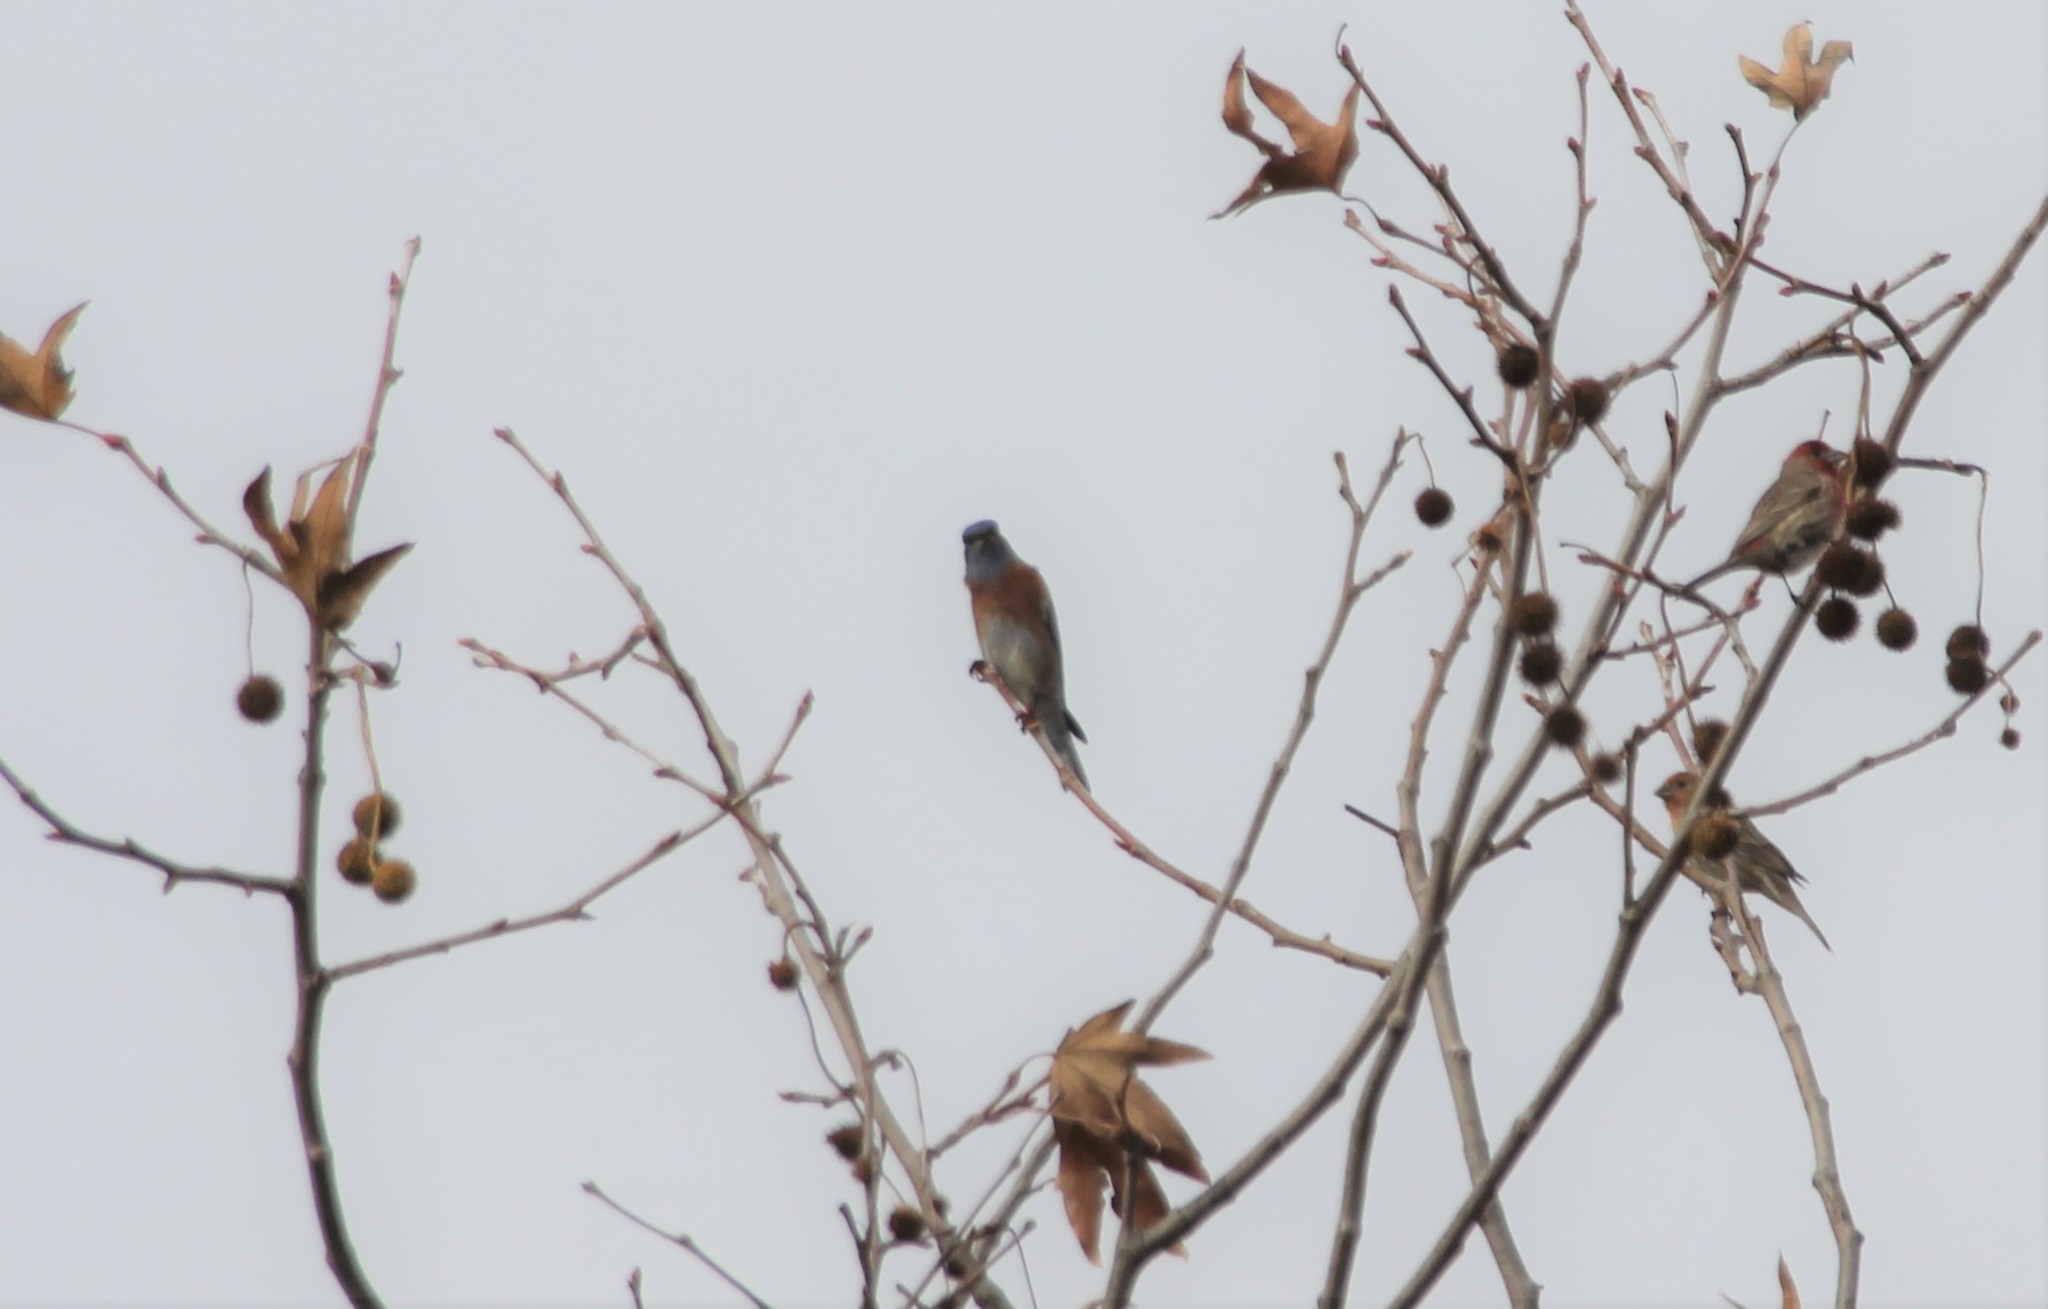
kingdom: Animalia
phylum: Chordata
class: Aves
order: Passeriformes
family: Turdidae
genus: Sialia
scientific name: Sialia mexicana
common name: Western bluebird
